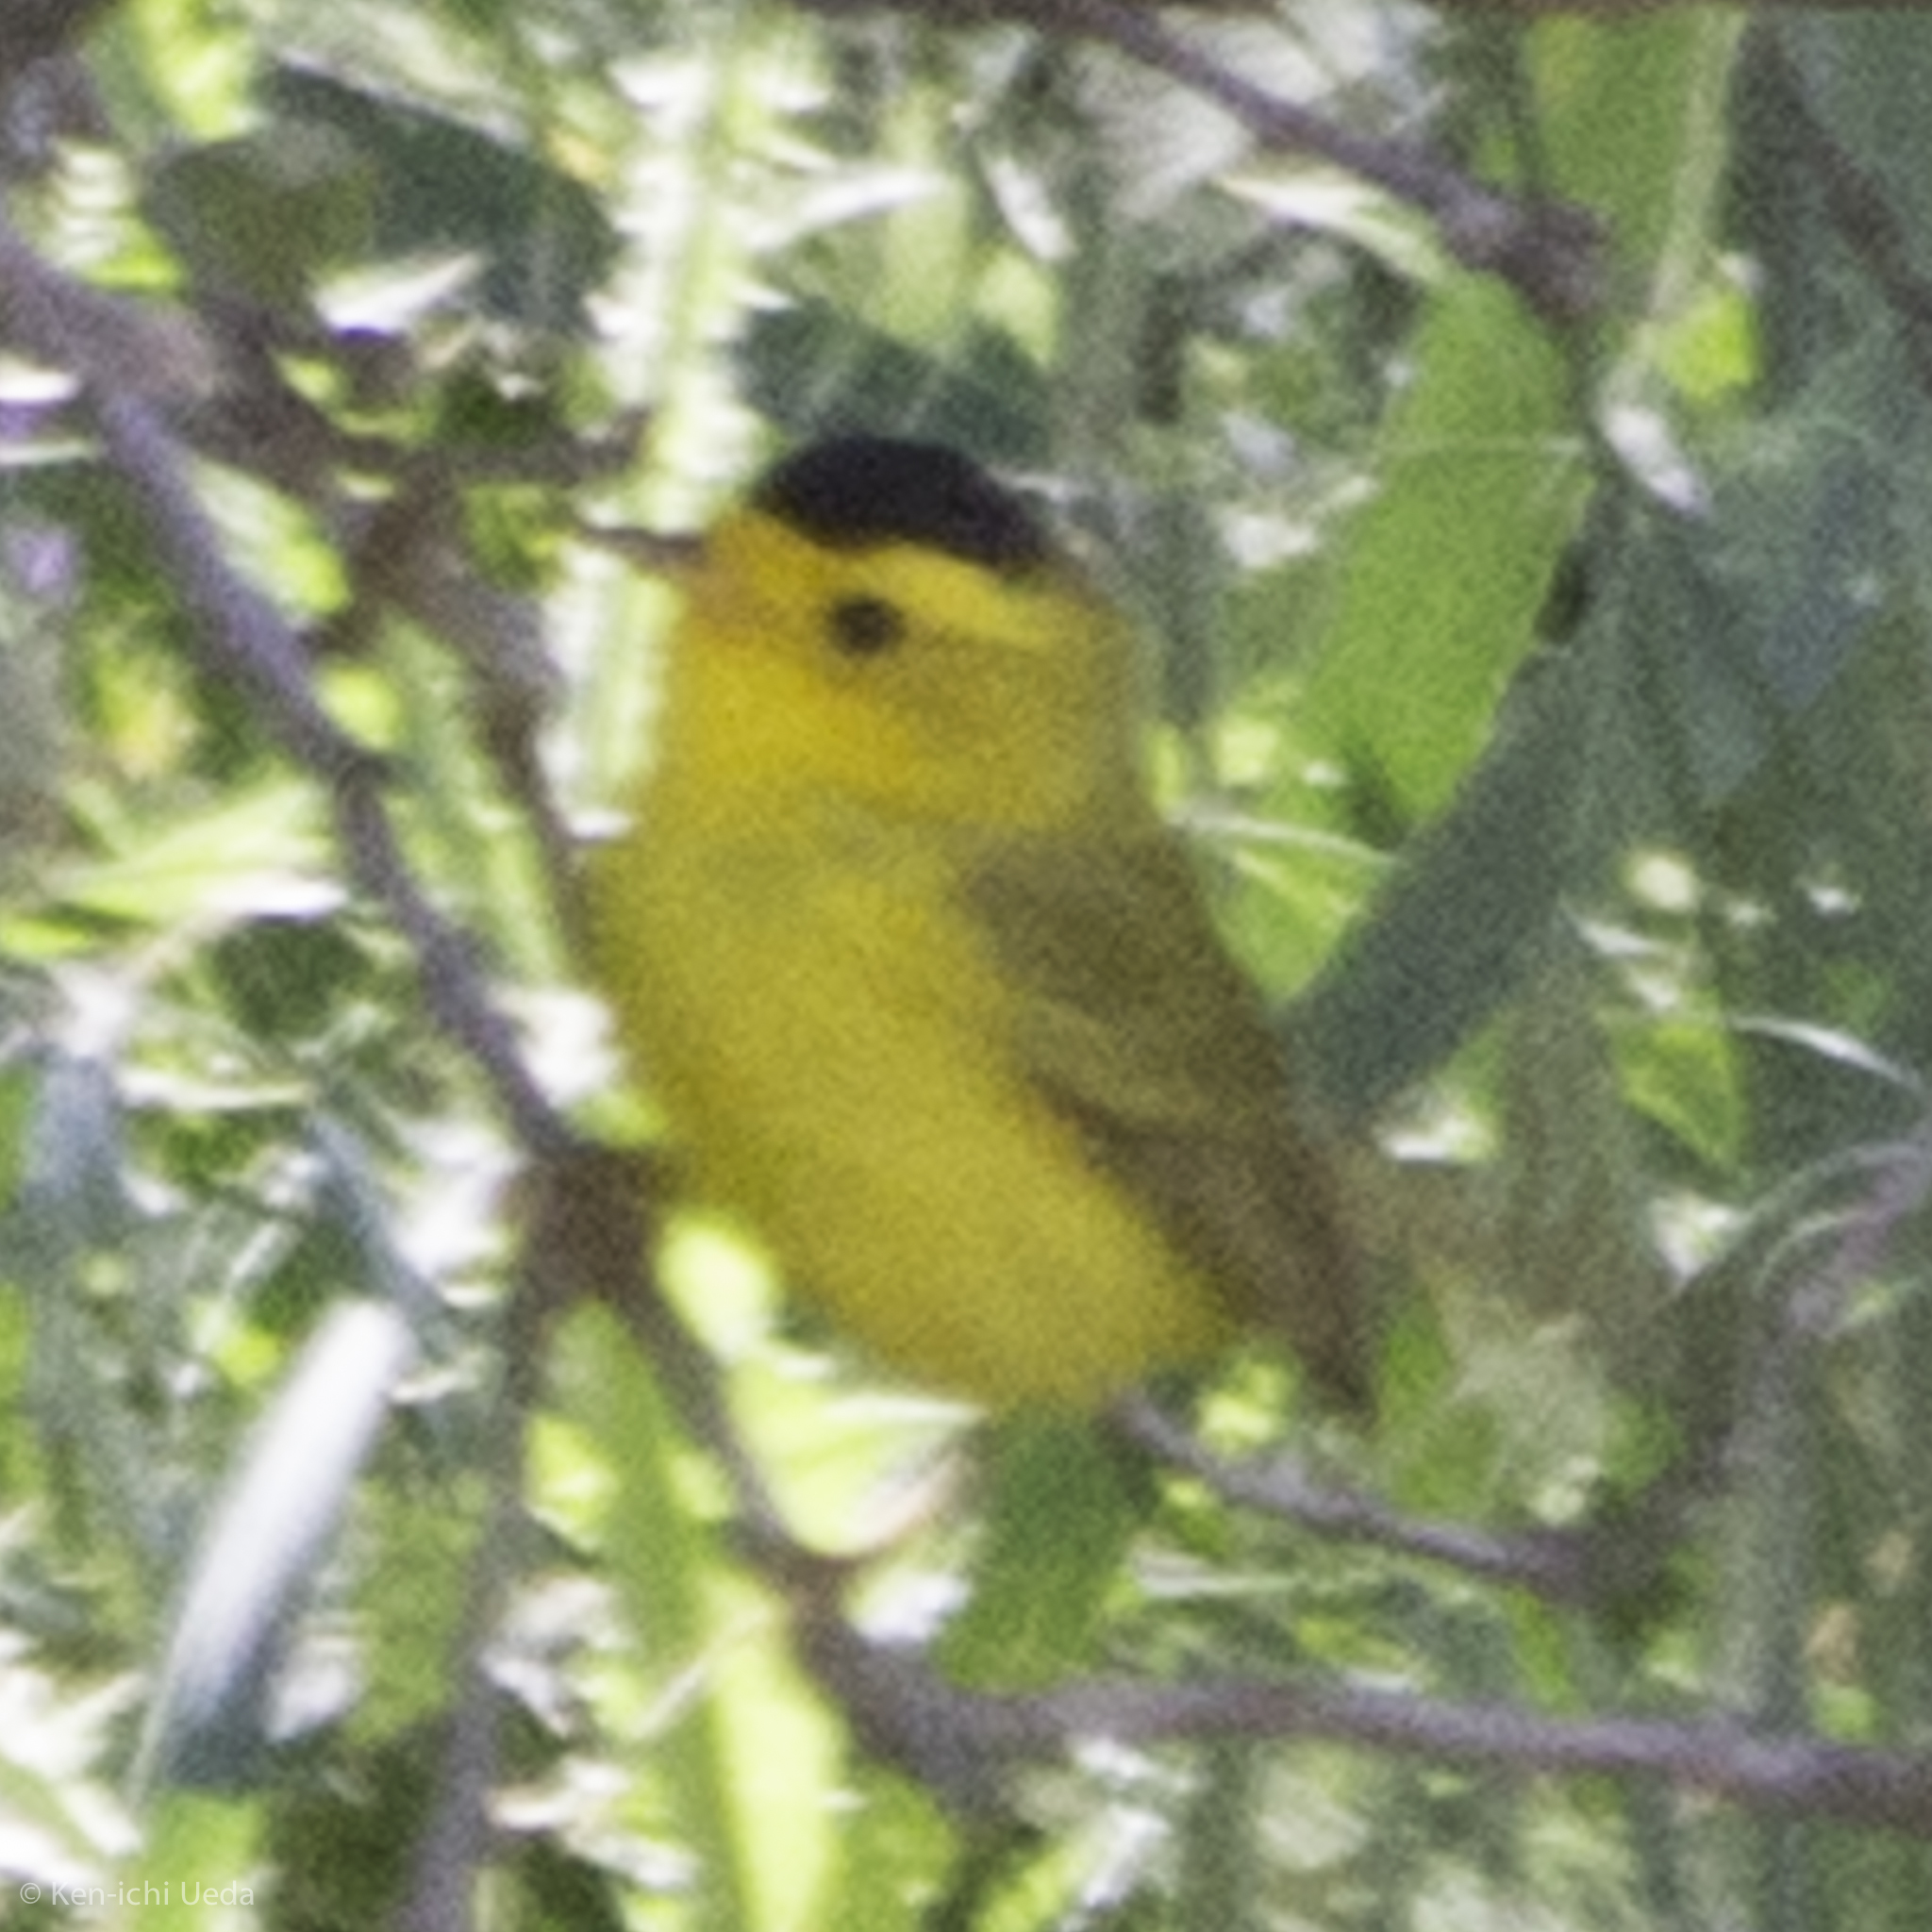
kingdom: Animalia
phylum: Chordata
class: Aves
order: Passeriformes
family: Parulidae
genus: Cardellina
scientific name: Cardellina pusilla
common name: Wilson's warbler
